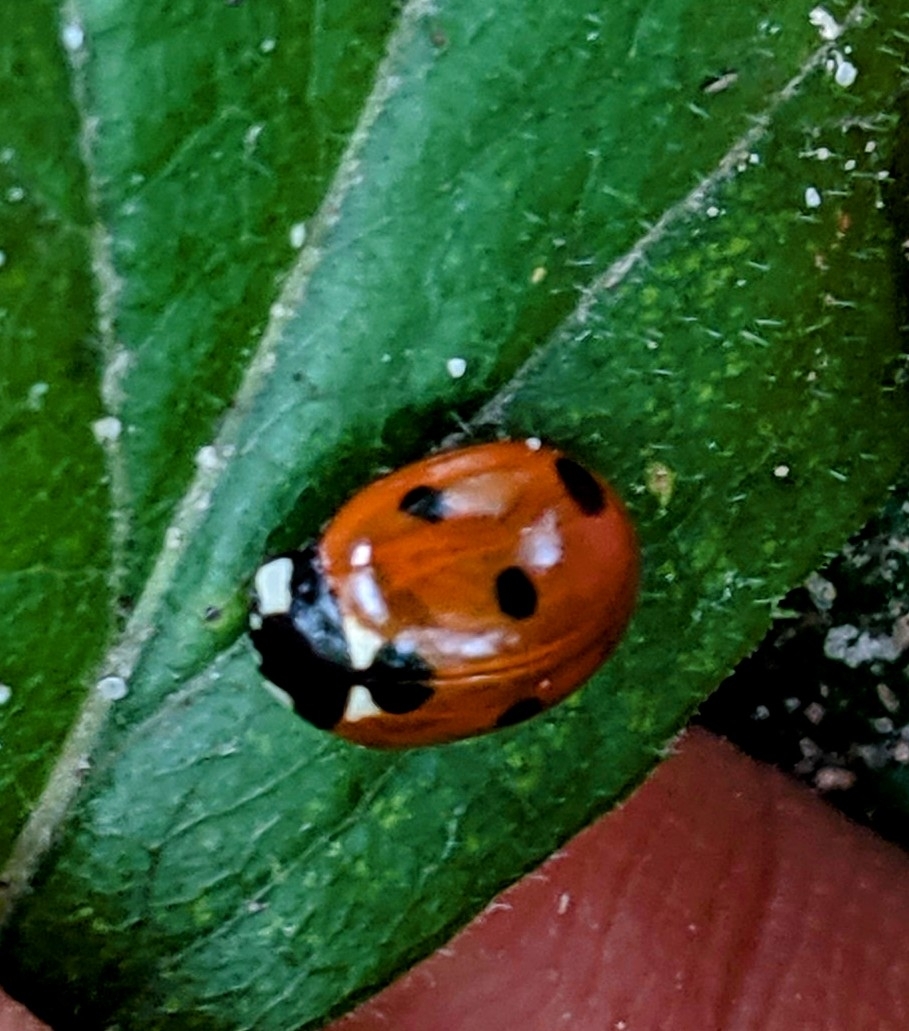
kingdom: Animalia
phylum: Arthropoda
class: Insecta
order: Coleoptera
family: Coccinellidae
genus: Coccinella
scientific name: Coccinella septempunctata
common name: Sevenspotted lady beetle
